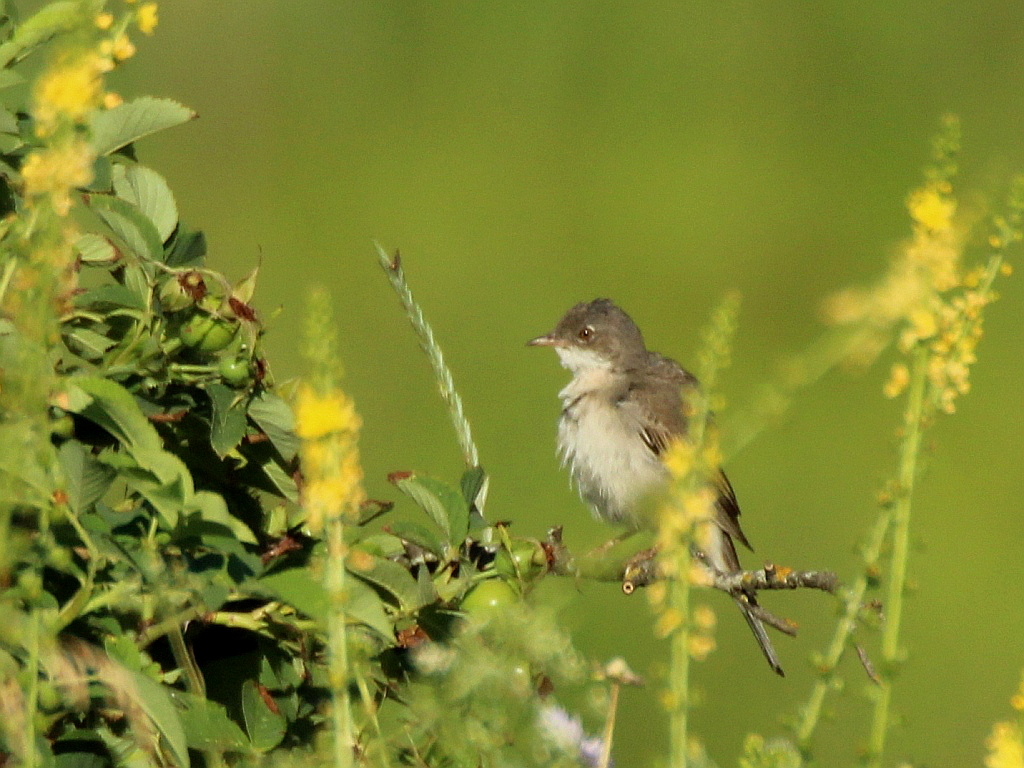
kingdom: Animalia
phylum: Chordata
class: Aves
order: Passeriformes
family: Sylviidae
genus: Sylvia
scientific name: Sylvia communis
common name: Common whitethroat
